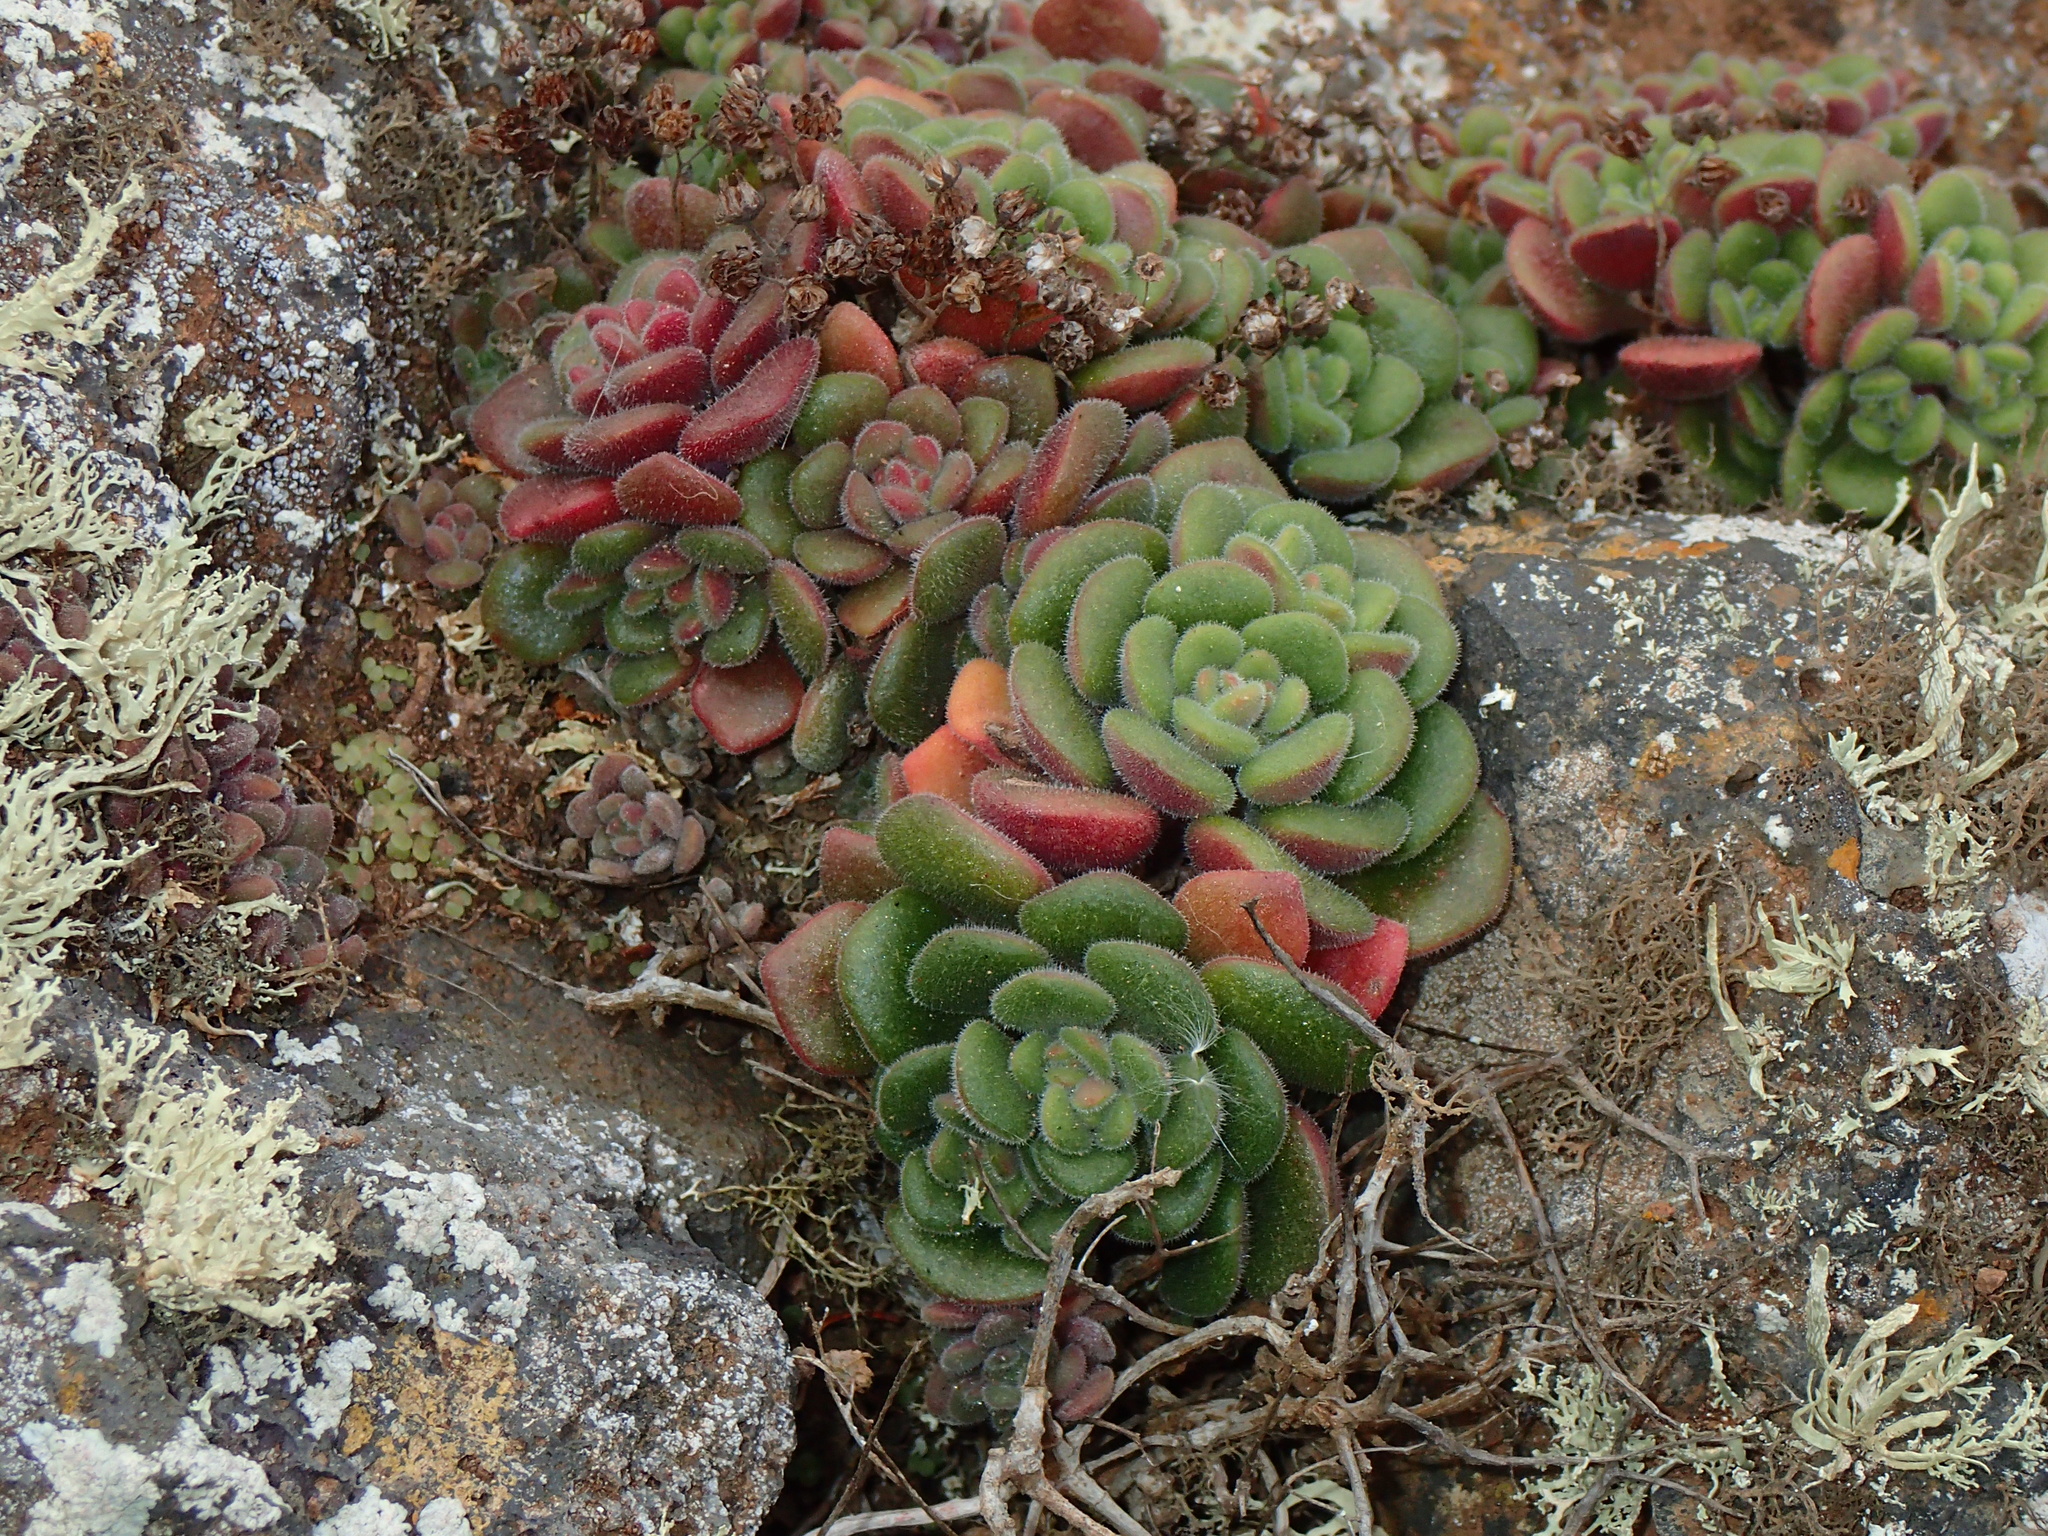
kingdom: Plantae
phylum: Tracheophyta
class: Magnoliopsida
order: Saxifragales
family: Crassulaceae
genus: Aichryson
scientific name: Aichryson tortuosum
